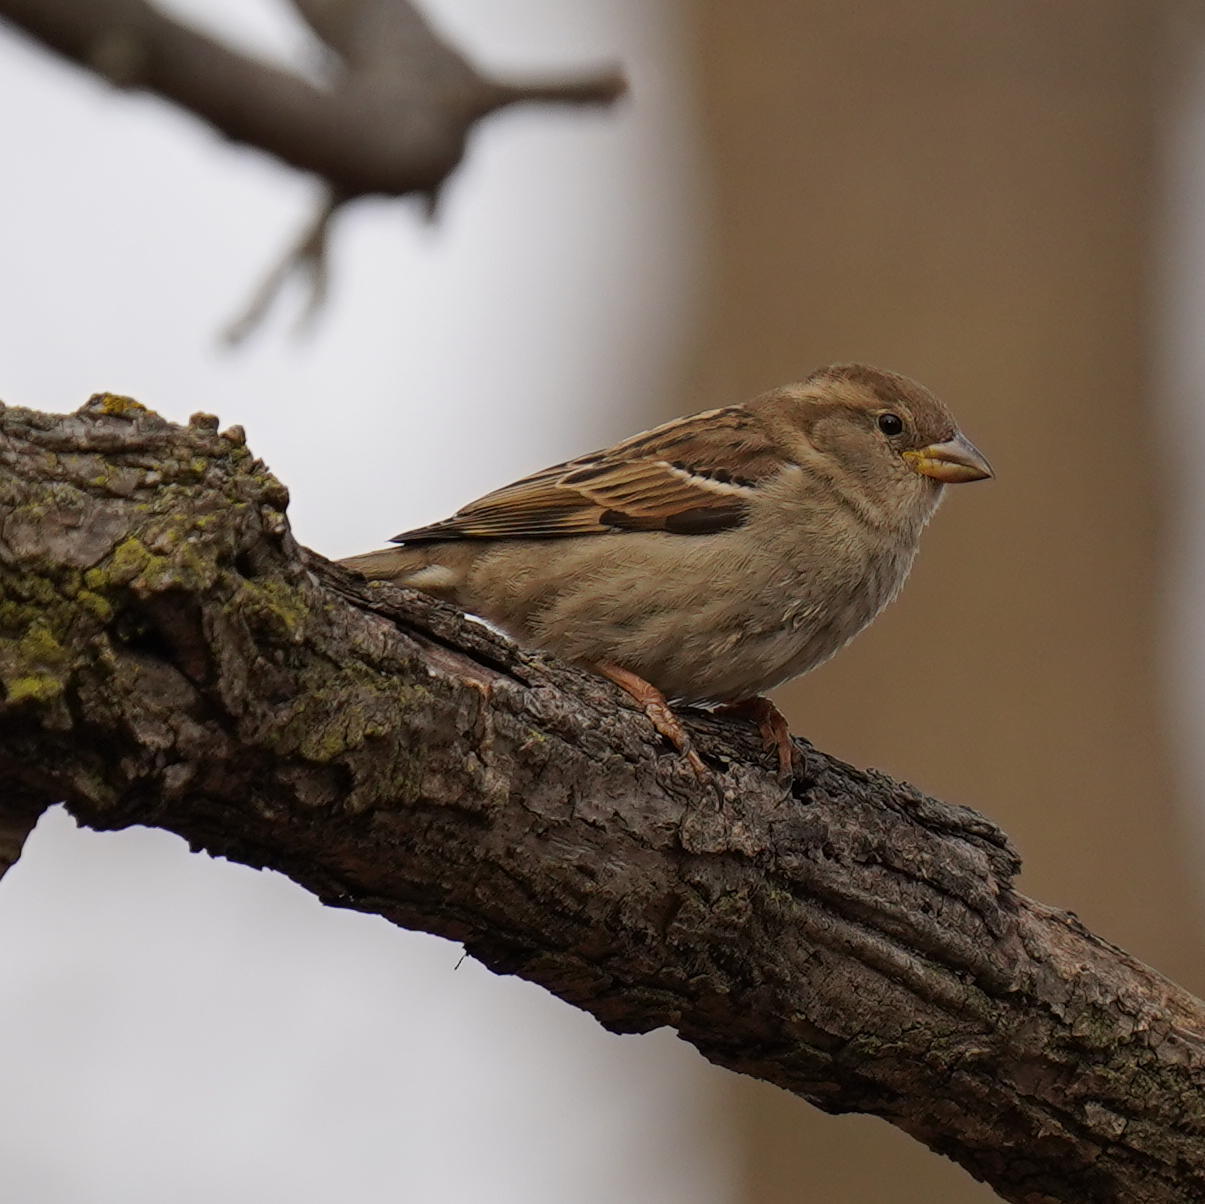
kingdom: Animalia
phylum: Chordata
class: Aves
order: Passeriformes
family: Passeridae
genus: Passer
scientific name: Passer domesticus
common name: House sparrow
